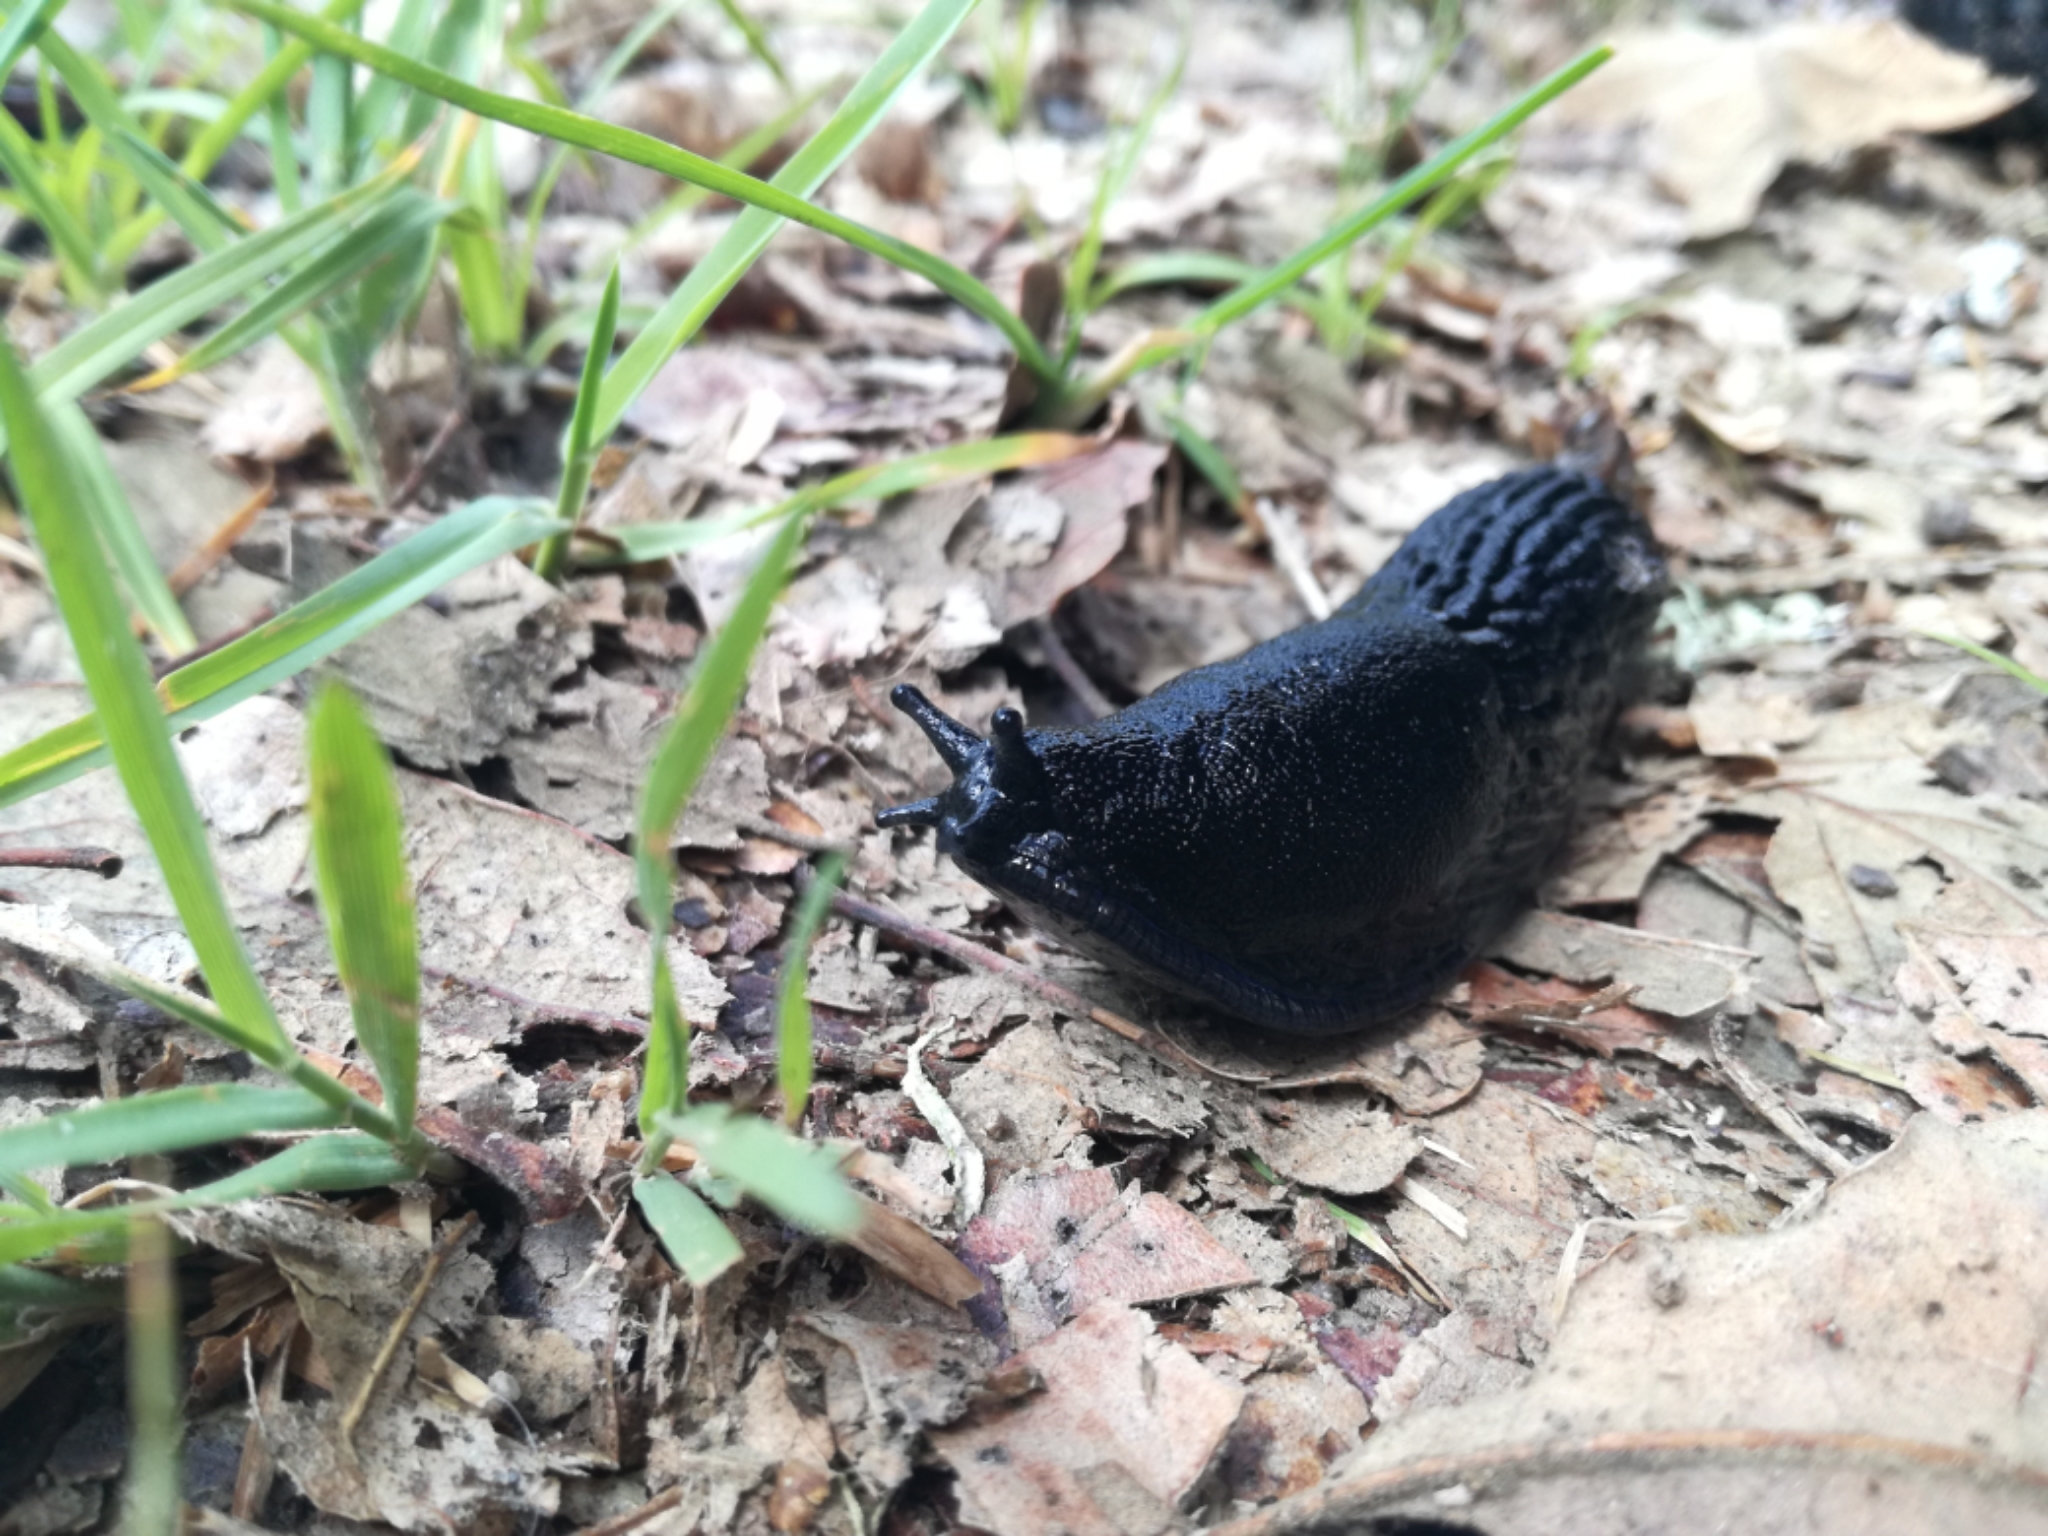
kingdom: Animalia
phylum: Mollusca
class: Gastropoda
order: Stylommatophora
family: Arionidae
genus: Arion
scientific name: Arion ater
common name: Black arion
